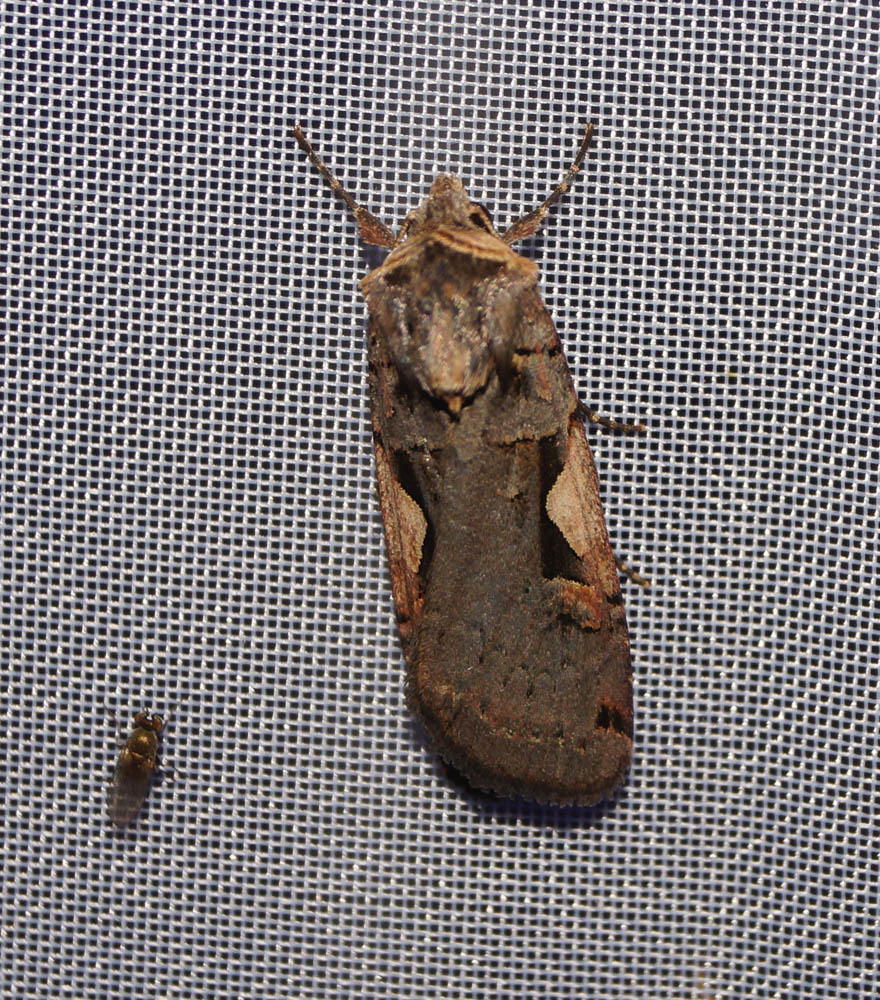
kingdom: Animalia
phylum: Arthropoda
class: Insecta
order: Lepidoptera
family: Noctuidae
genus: Xestia
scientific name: Xestia c-nigrum
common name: Setaceous hebrew character
